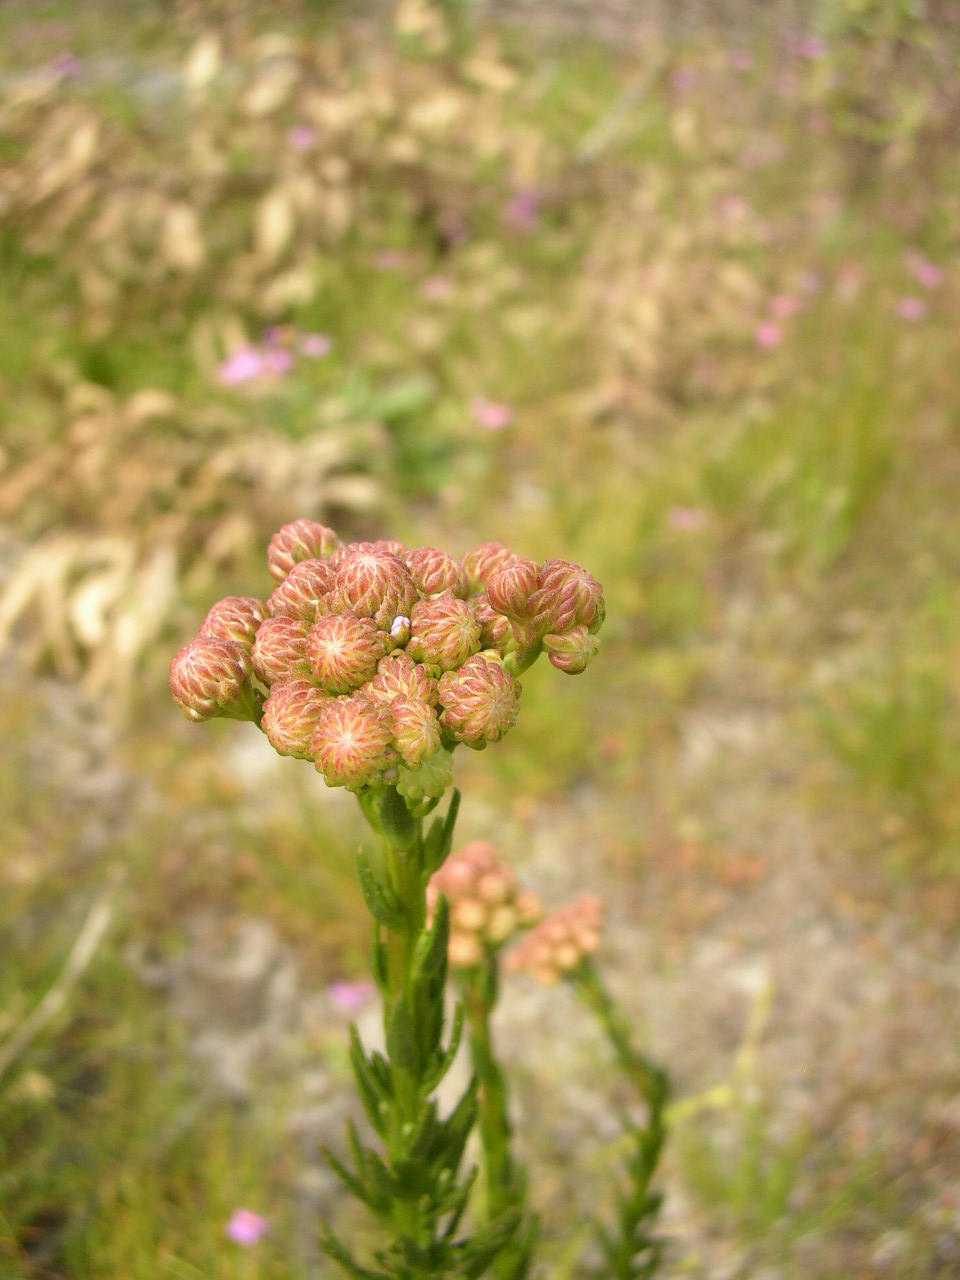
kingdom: Plantae
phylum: Tracheophyta
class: Magnoliopsida
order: Lamiales
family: Scrophulariaceae
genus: Pseudoselago
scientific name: Pseudoselago spuria
